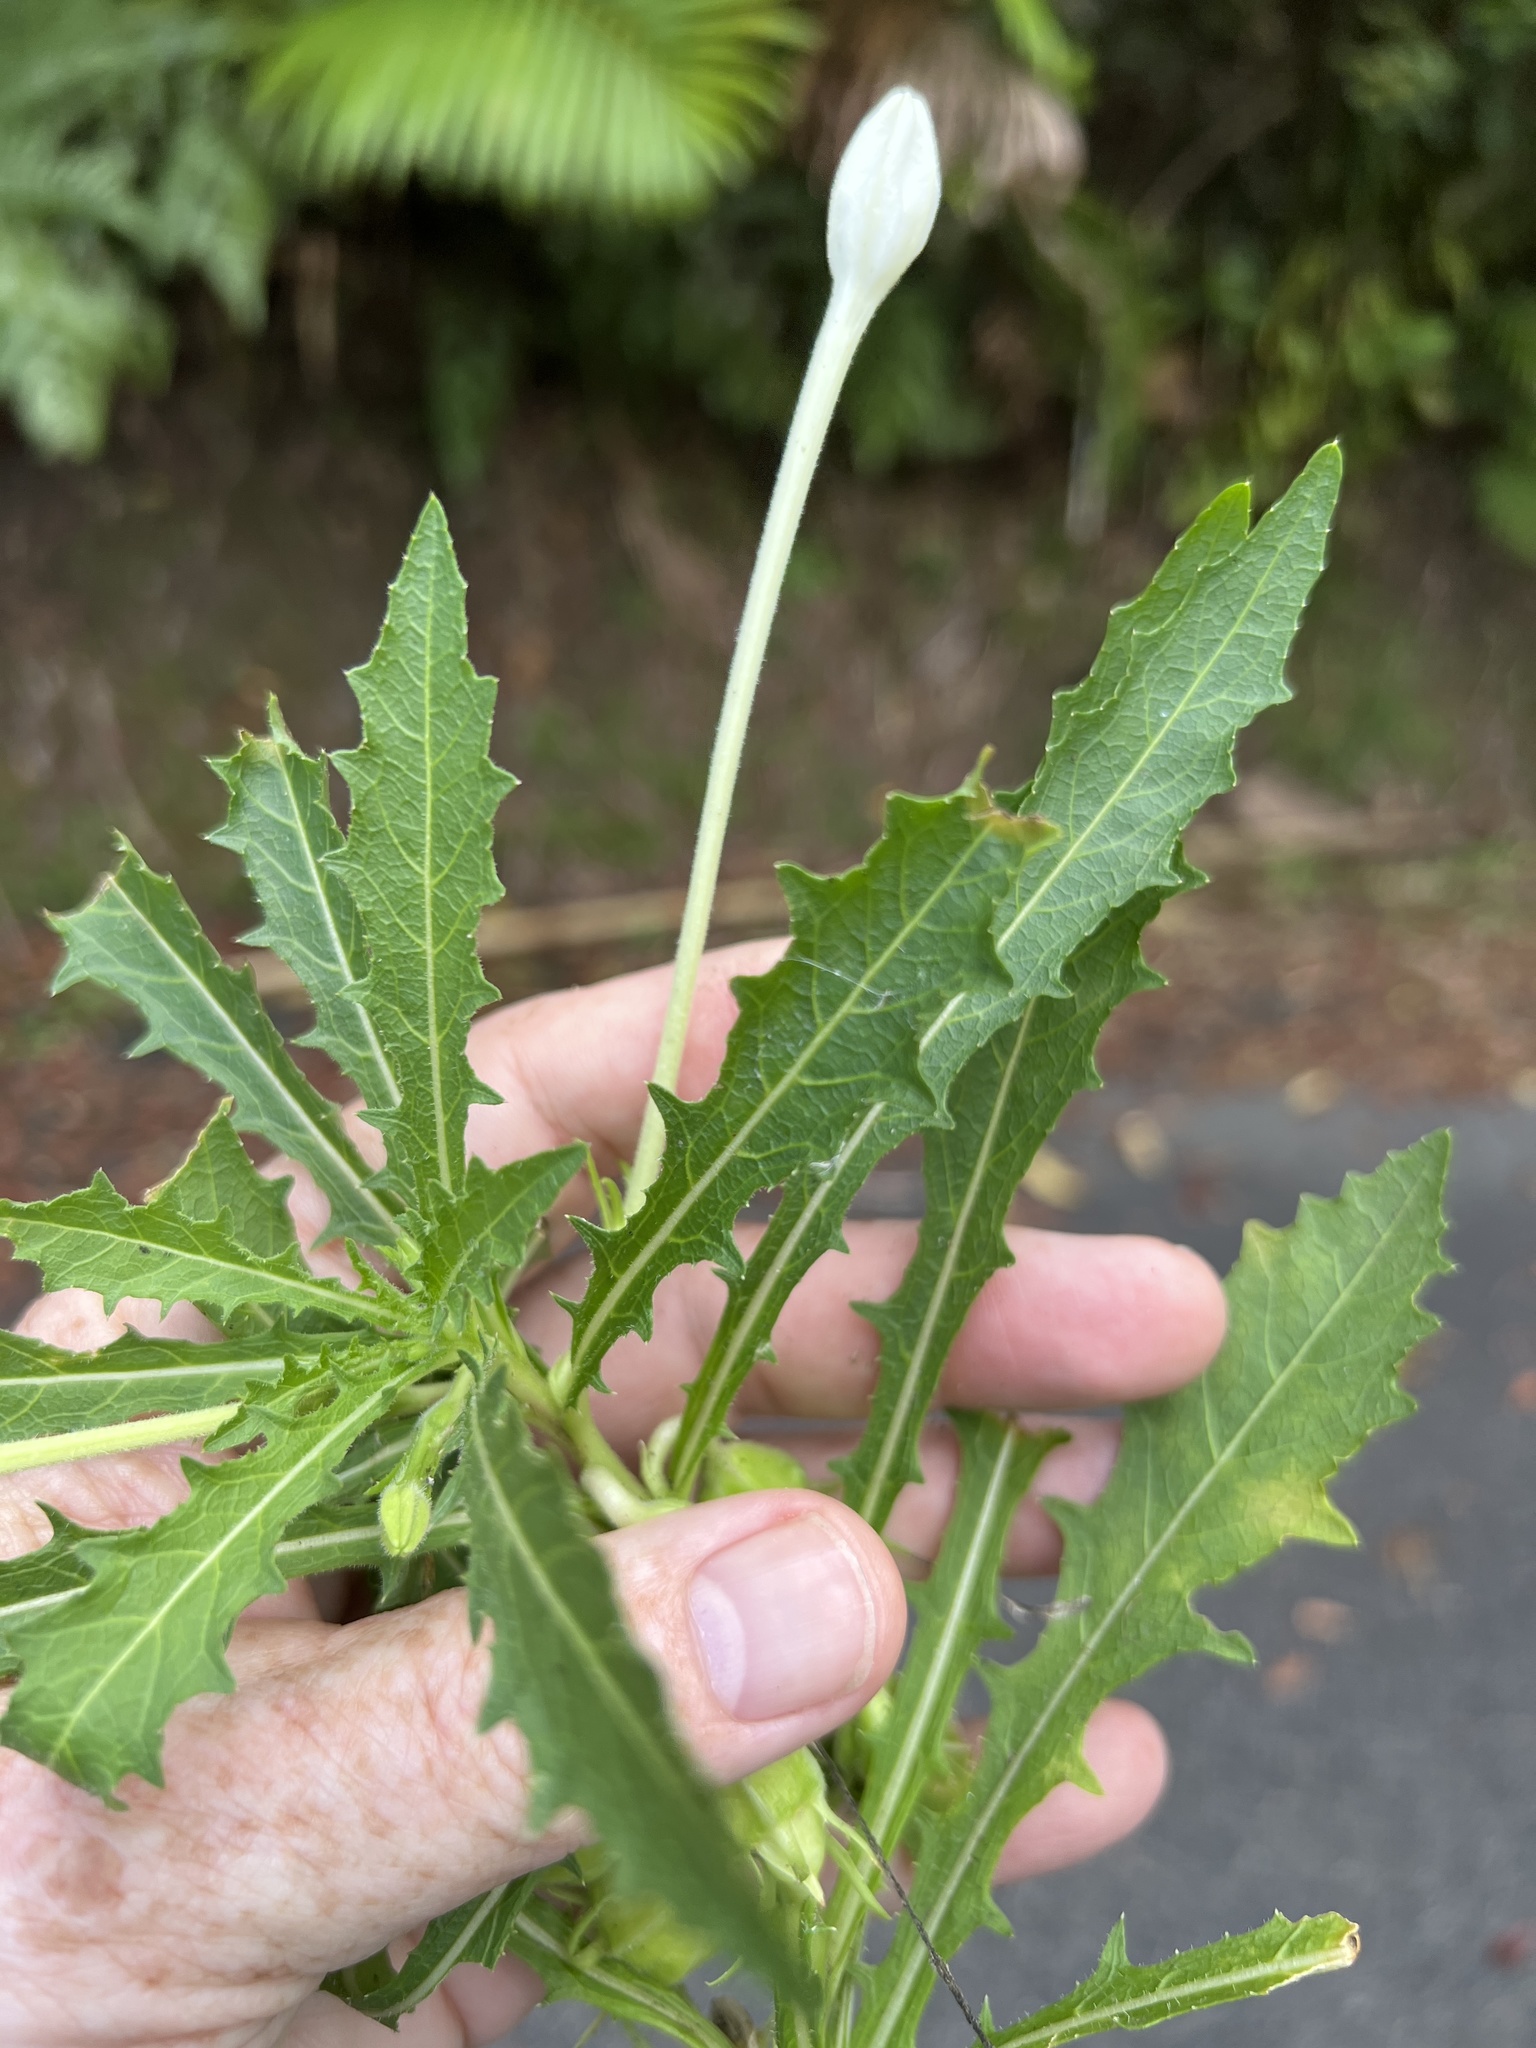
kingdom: Plantae
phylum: Tracheophyta
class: Magnoliopsida
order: Asterales
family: Campanulaceae
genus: Hippobroma
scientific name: Hippobroma longiflora
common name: Madamfate
